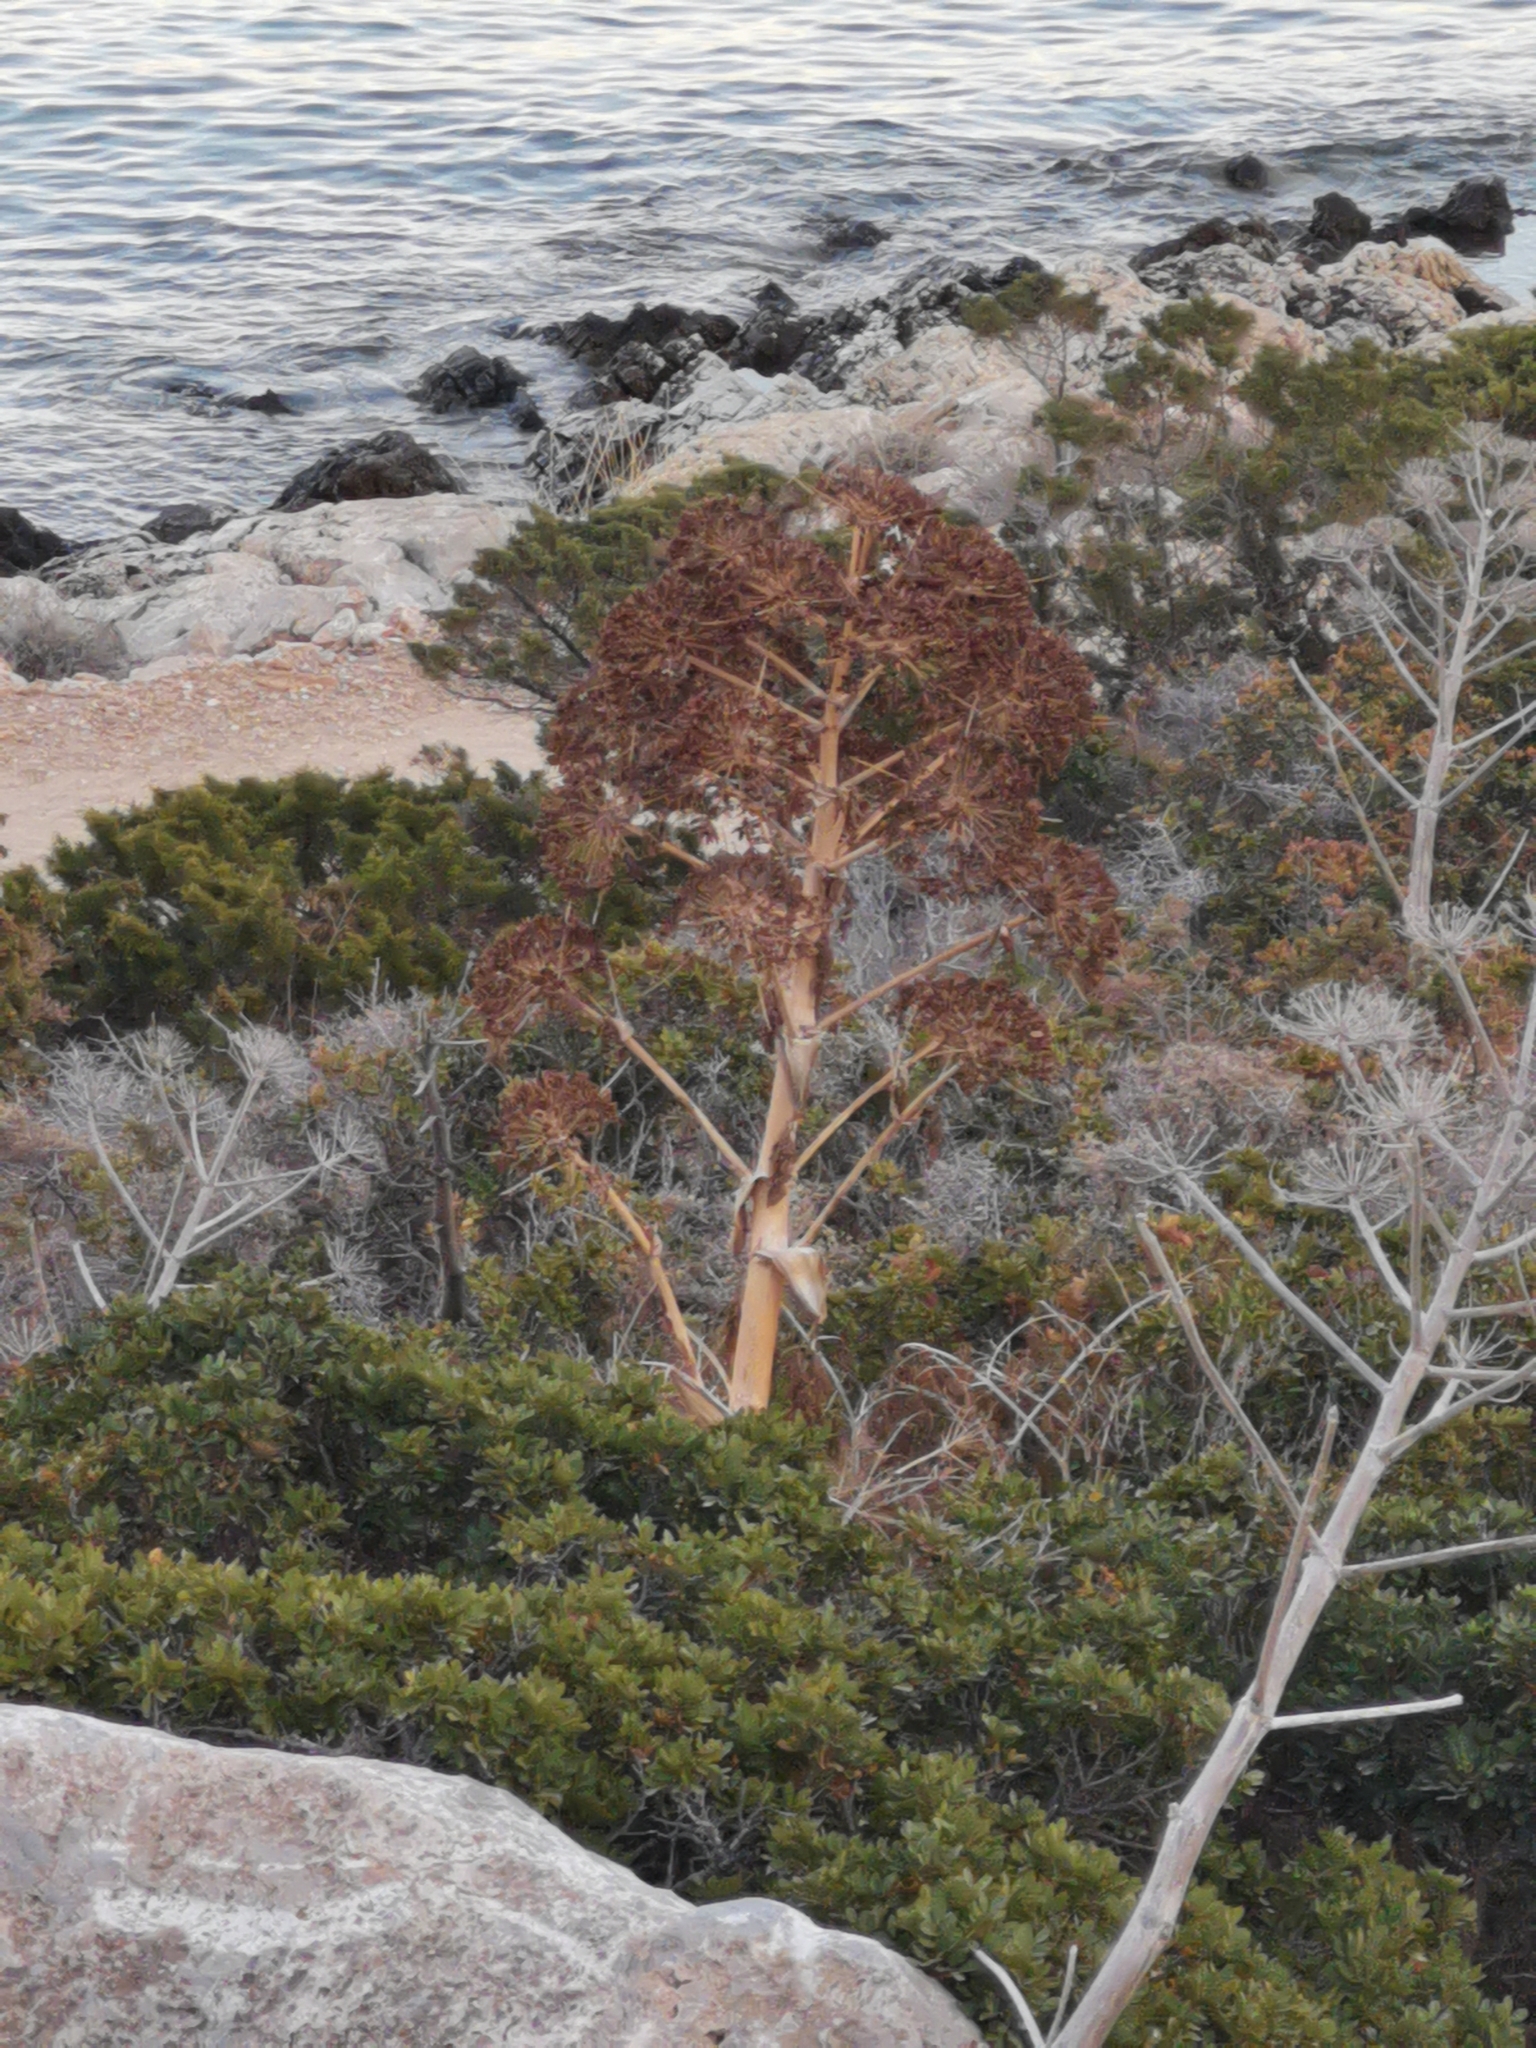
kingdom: Plantae
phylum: Tracheophyta
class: Magnoliopsida
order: Apiales
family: Apiaceae
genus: Ferula
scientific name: Ferula communis
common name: Giant fennel
